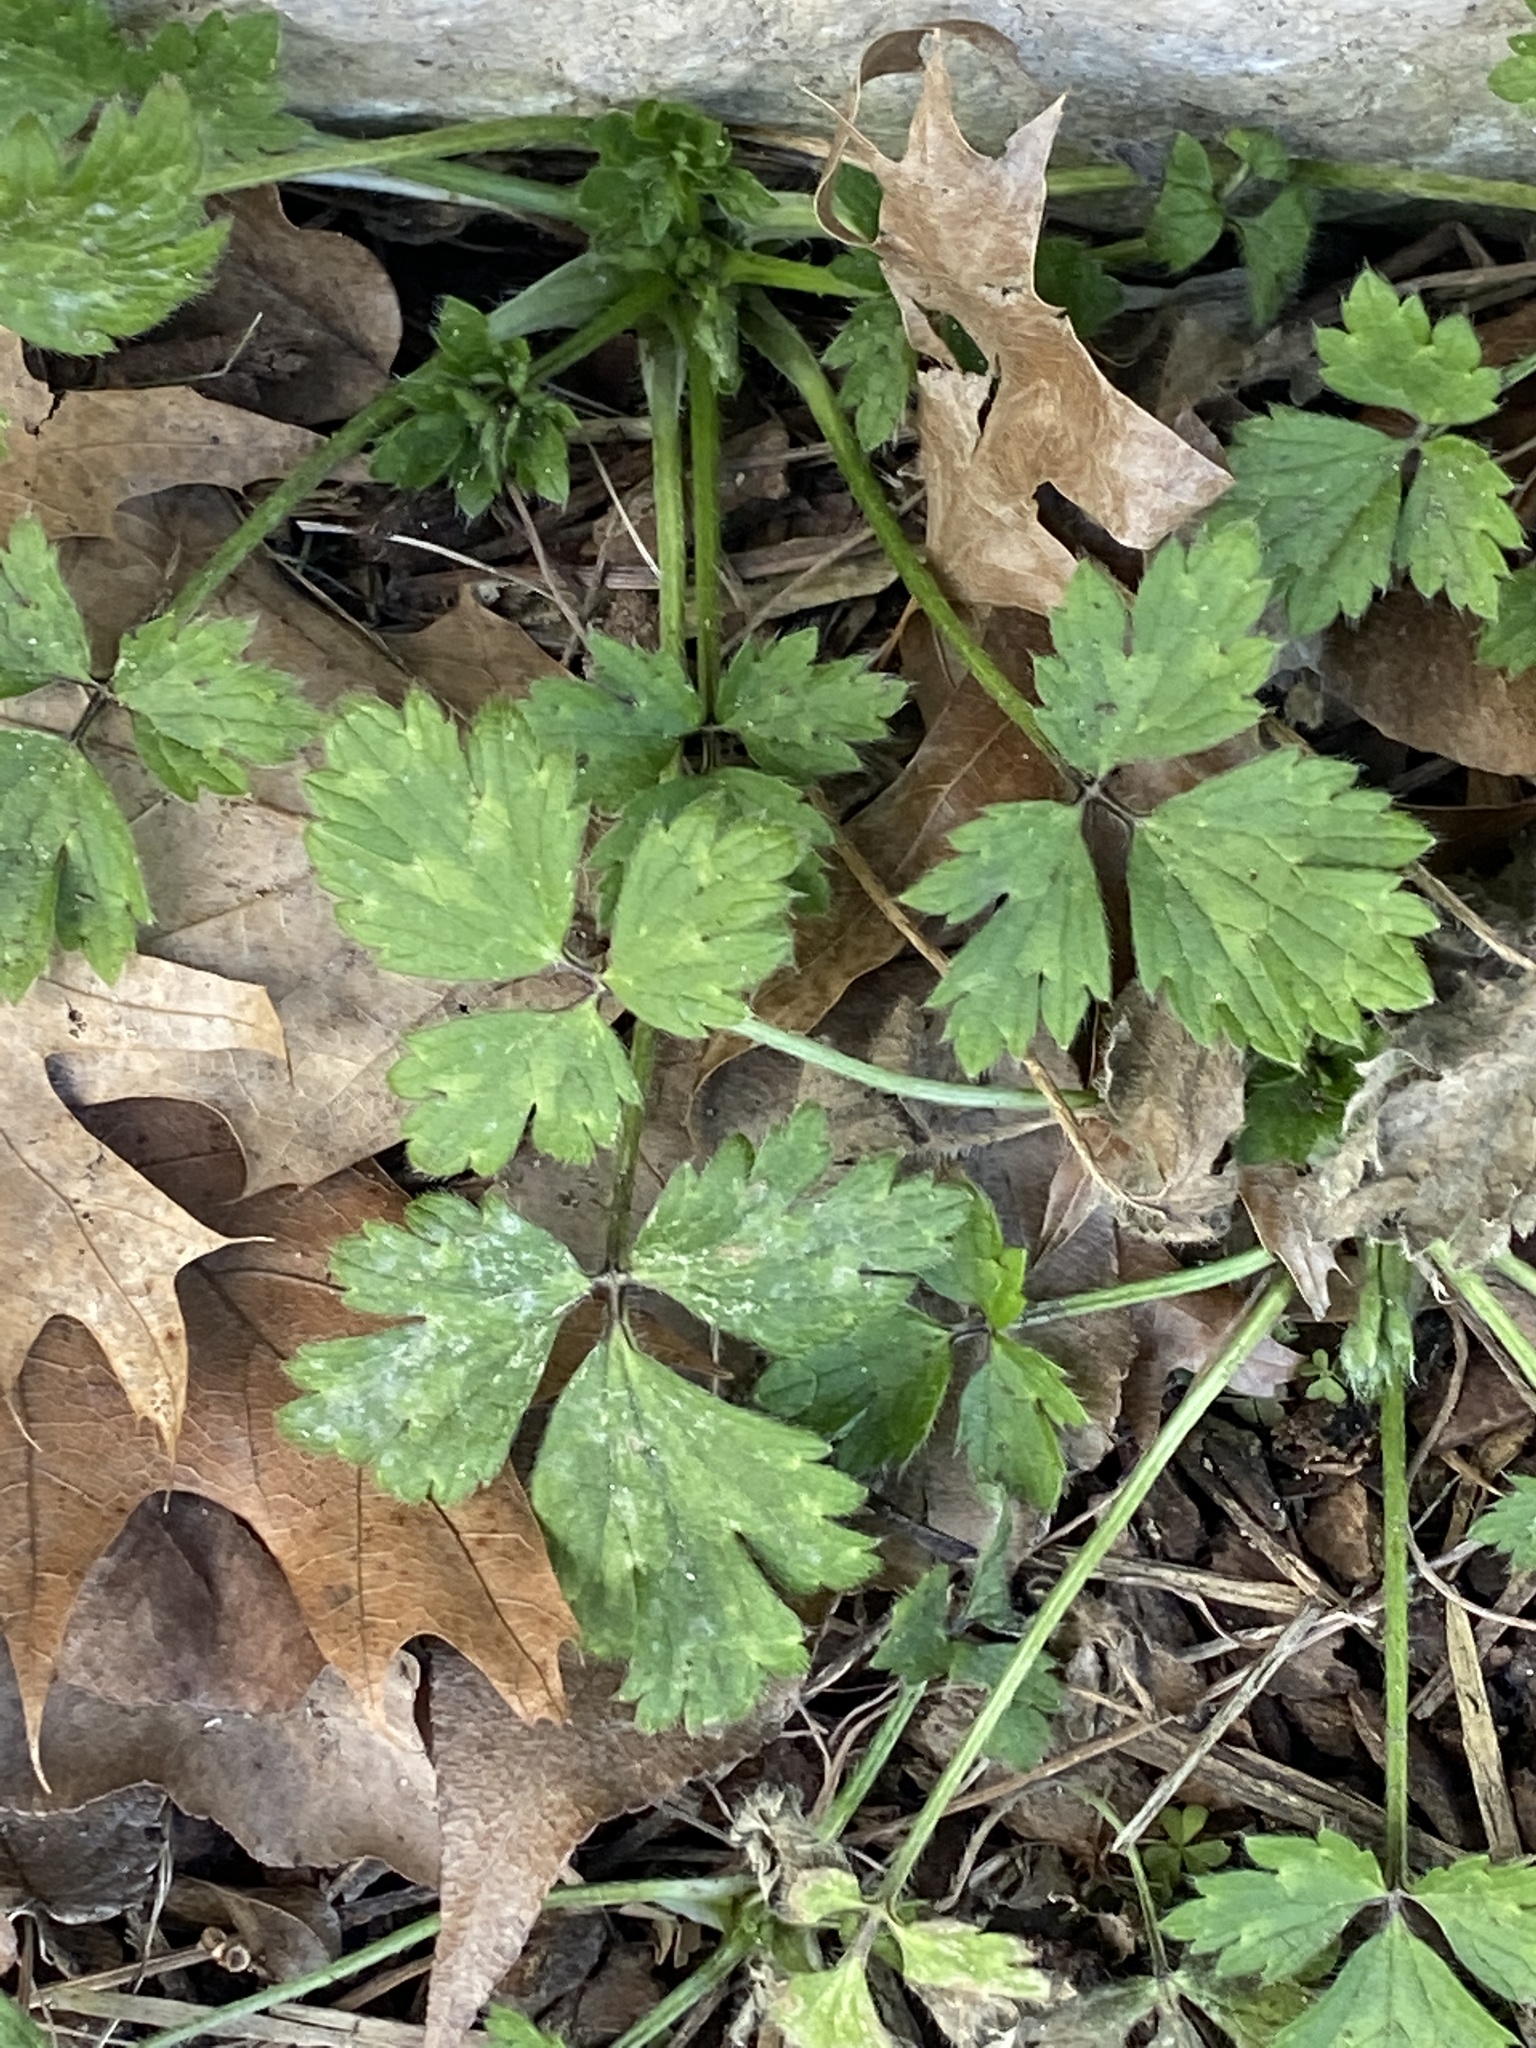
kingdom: Plantae
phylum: Tracheophyta
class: Magnoliopsida
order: Ranunculales
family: Ranunculaceae
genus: Ranunculus
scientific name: Ranunculus repens
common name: Creeping buttercup
